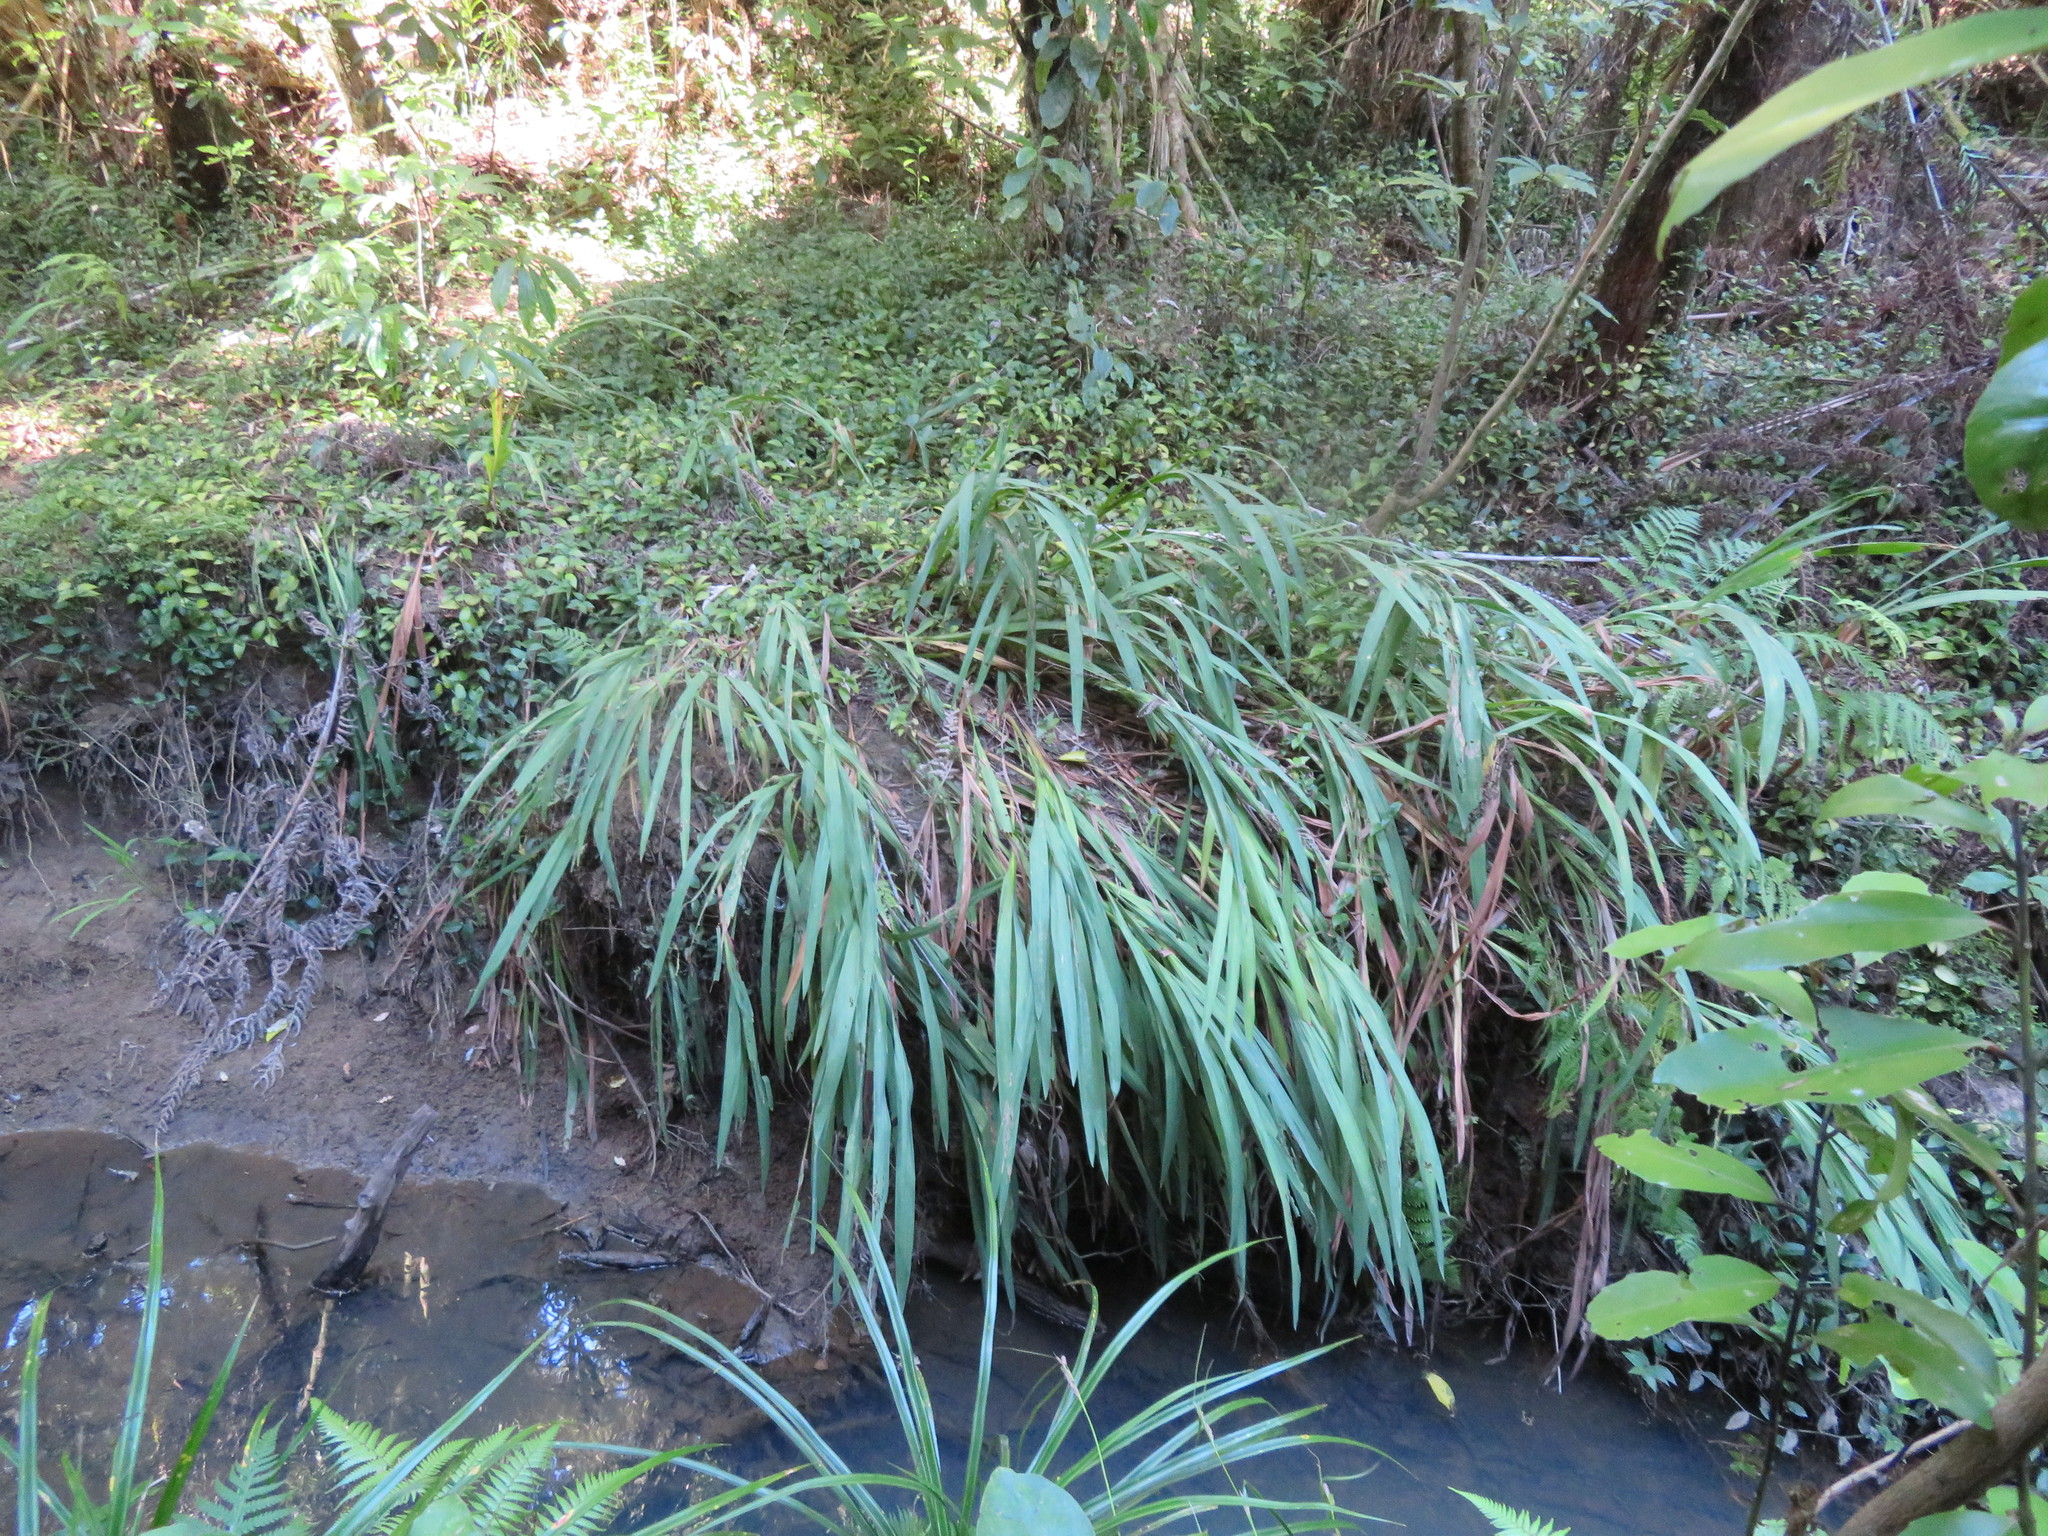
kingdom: Plantae
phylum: Tracheophyta
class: Liliopsida
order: Asparagales
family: Iridaceae
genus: Crocosmia
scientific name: Crocosmia crocosmiiflora
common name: Montbretia
